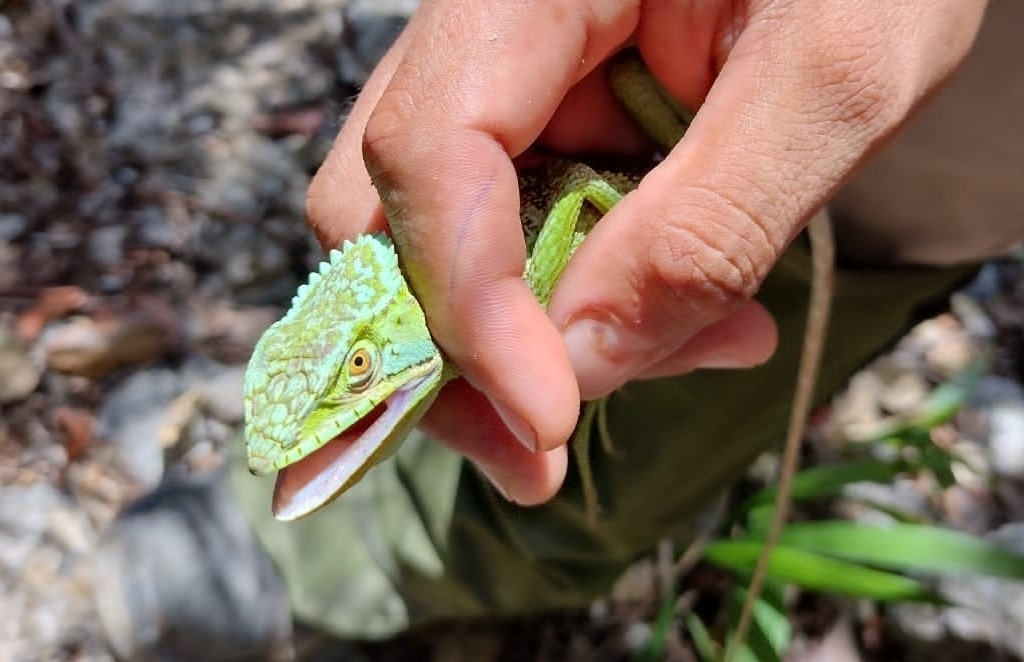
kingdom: Animalia
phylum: Chordata
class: Squamata
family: Corytophanidae
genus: Laemanctus
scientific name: Laemanctus serratus
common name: Serrated casquehead iguana
